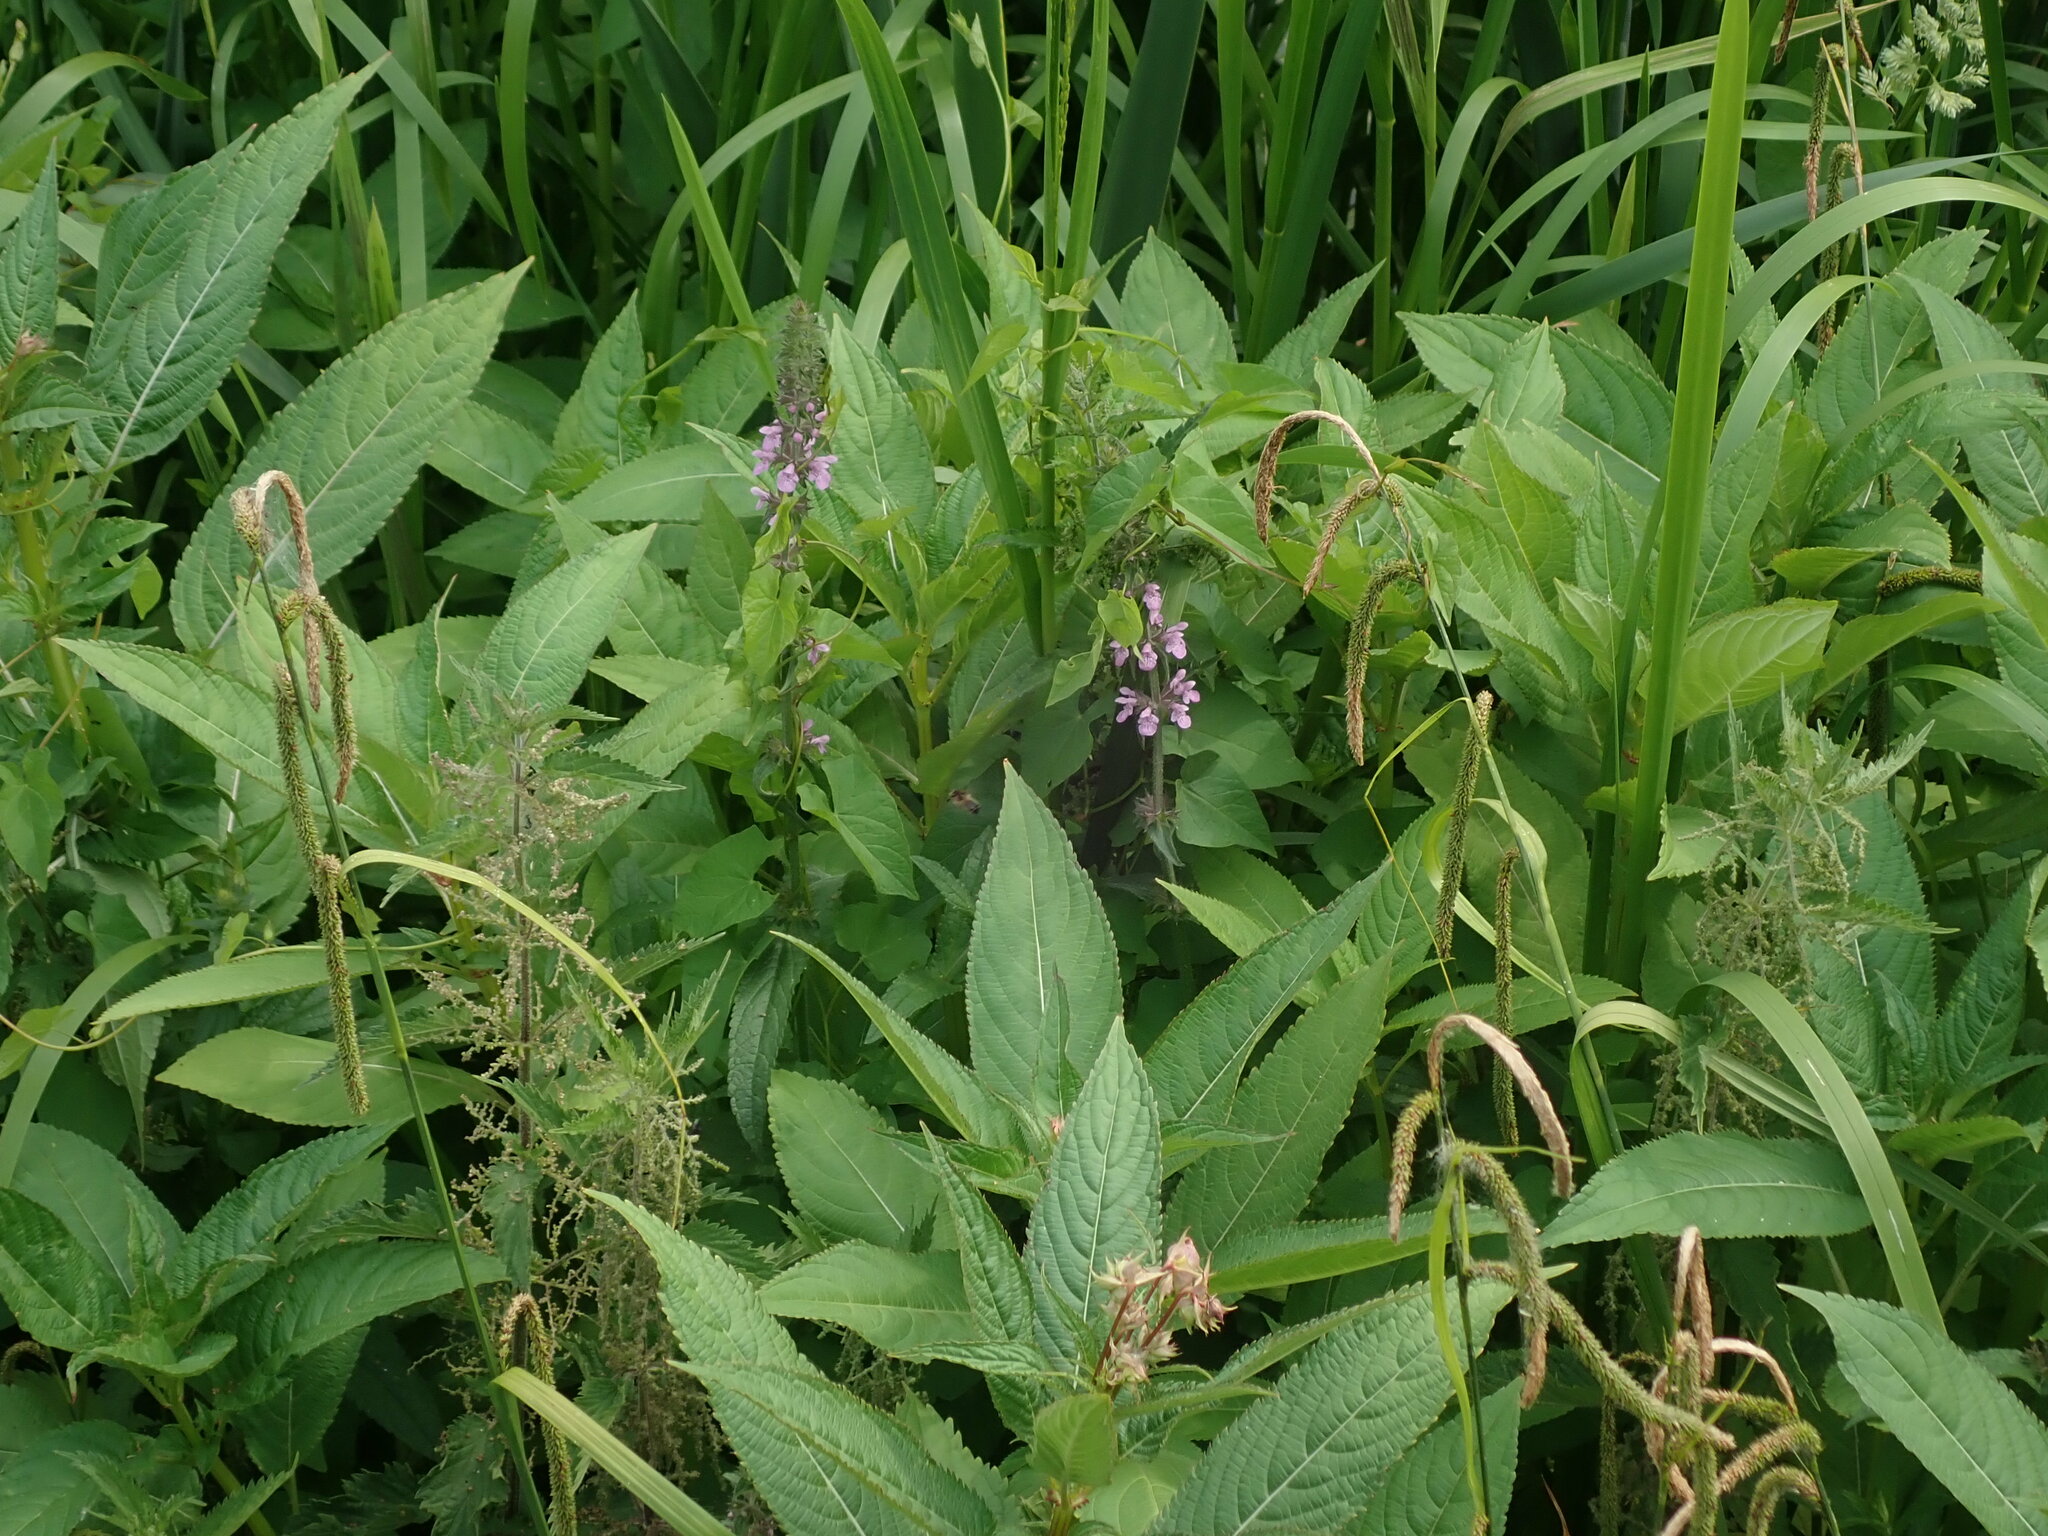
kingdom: Plantae
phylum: Tracheophyta
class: Magnoliopsida
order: Lamiales
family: Lamiaceae
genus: Stachys
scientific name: Stachys palustris
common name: Marsh woundwort
